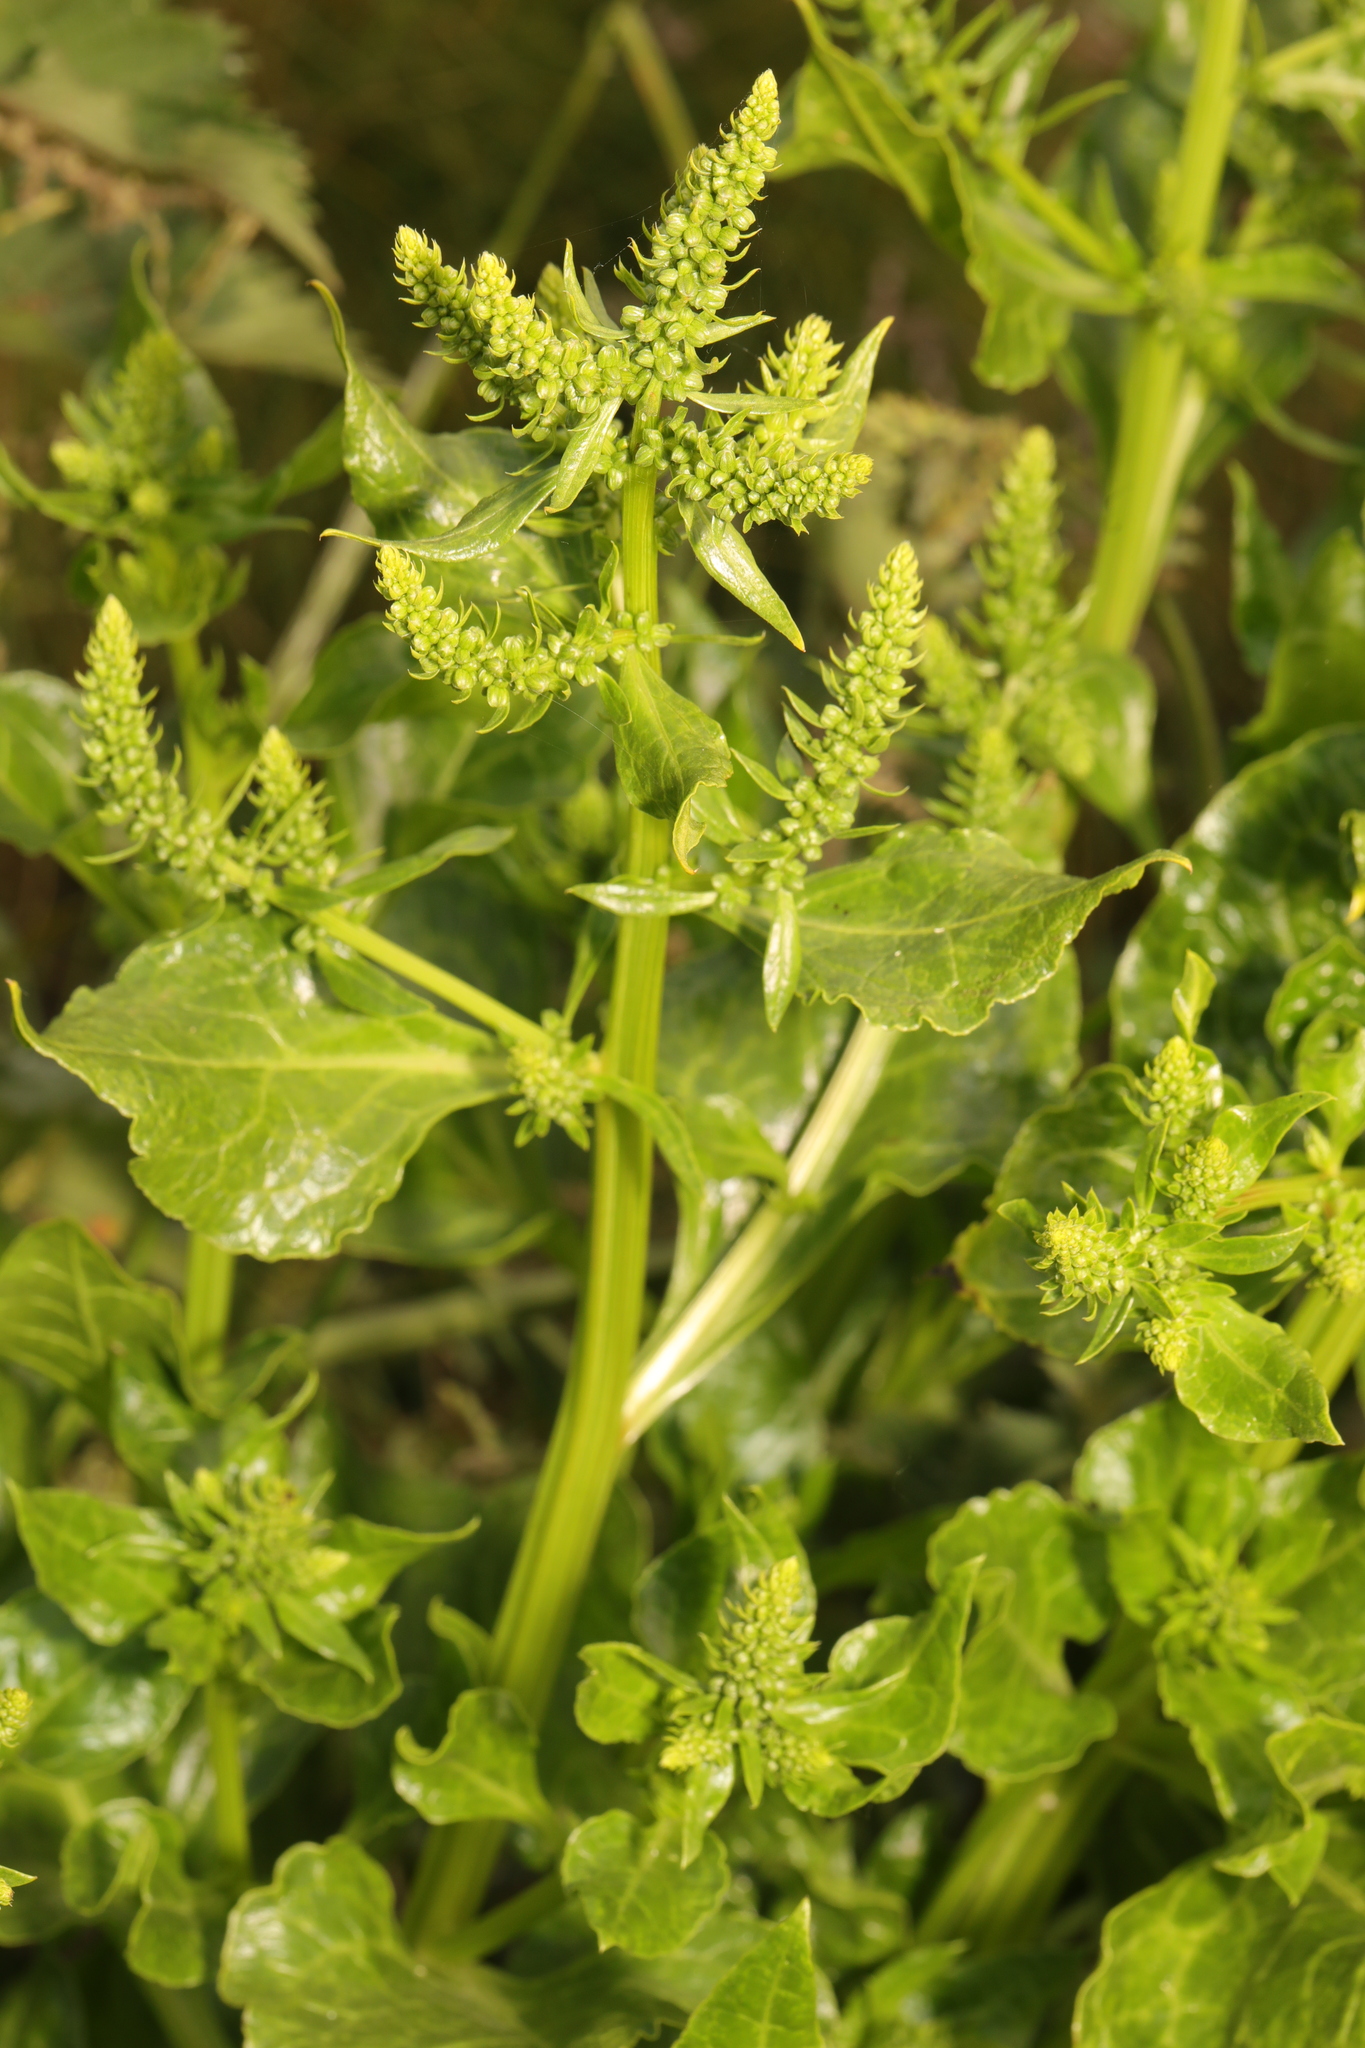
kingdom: Plantae
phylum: Tracheophyta
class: Magnoliopsida
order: Caryophyllales
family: Amaranthaceae
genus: Beta
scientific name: Beta vulgaris
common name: Beet
